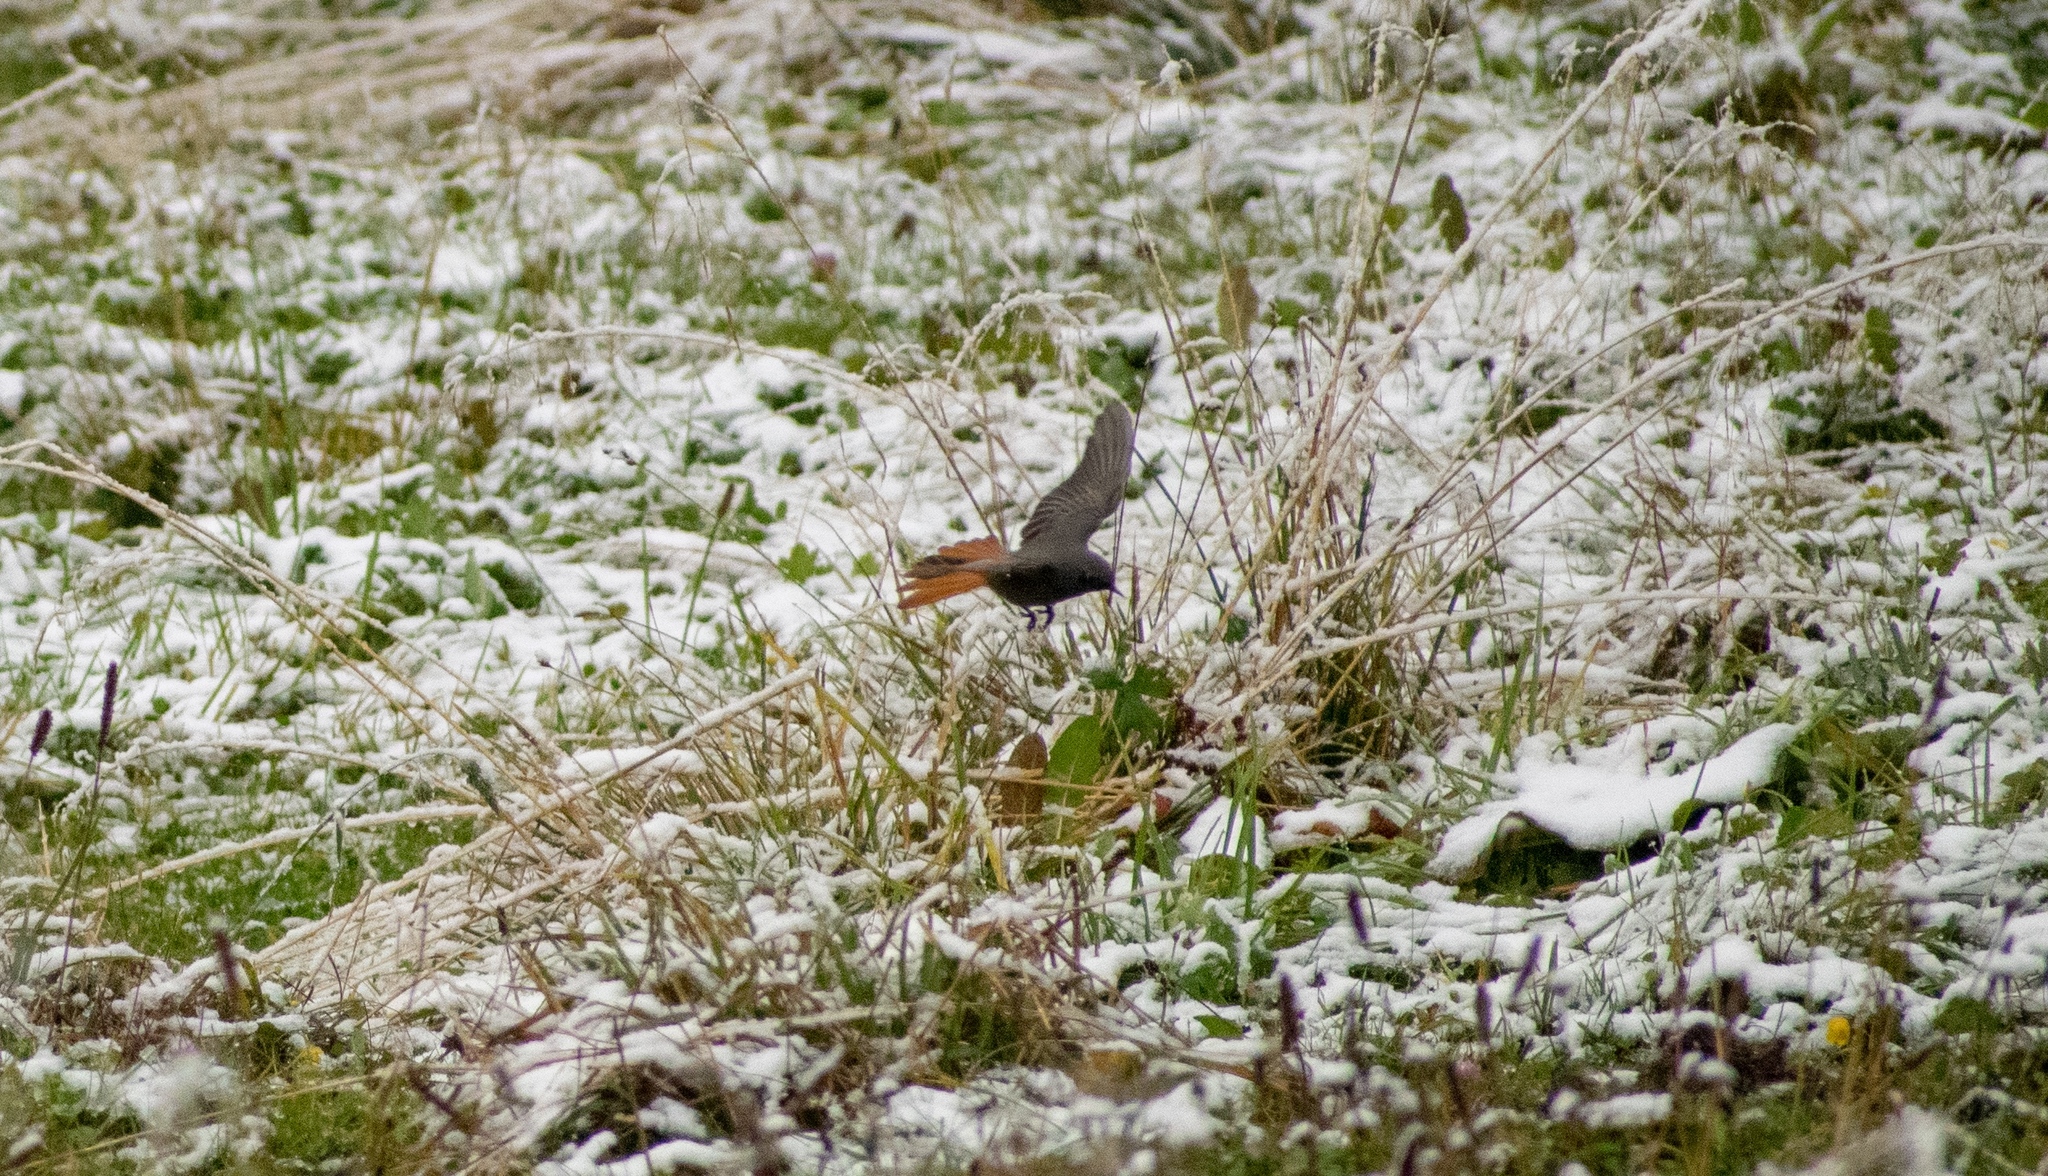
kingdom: Animalia
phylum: Chordata
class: Aves
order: Passeriformes
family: Muscicapidae
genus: Phoenicurus
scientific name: Phoenicurus ochruros
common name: Black redstart
